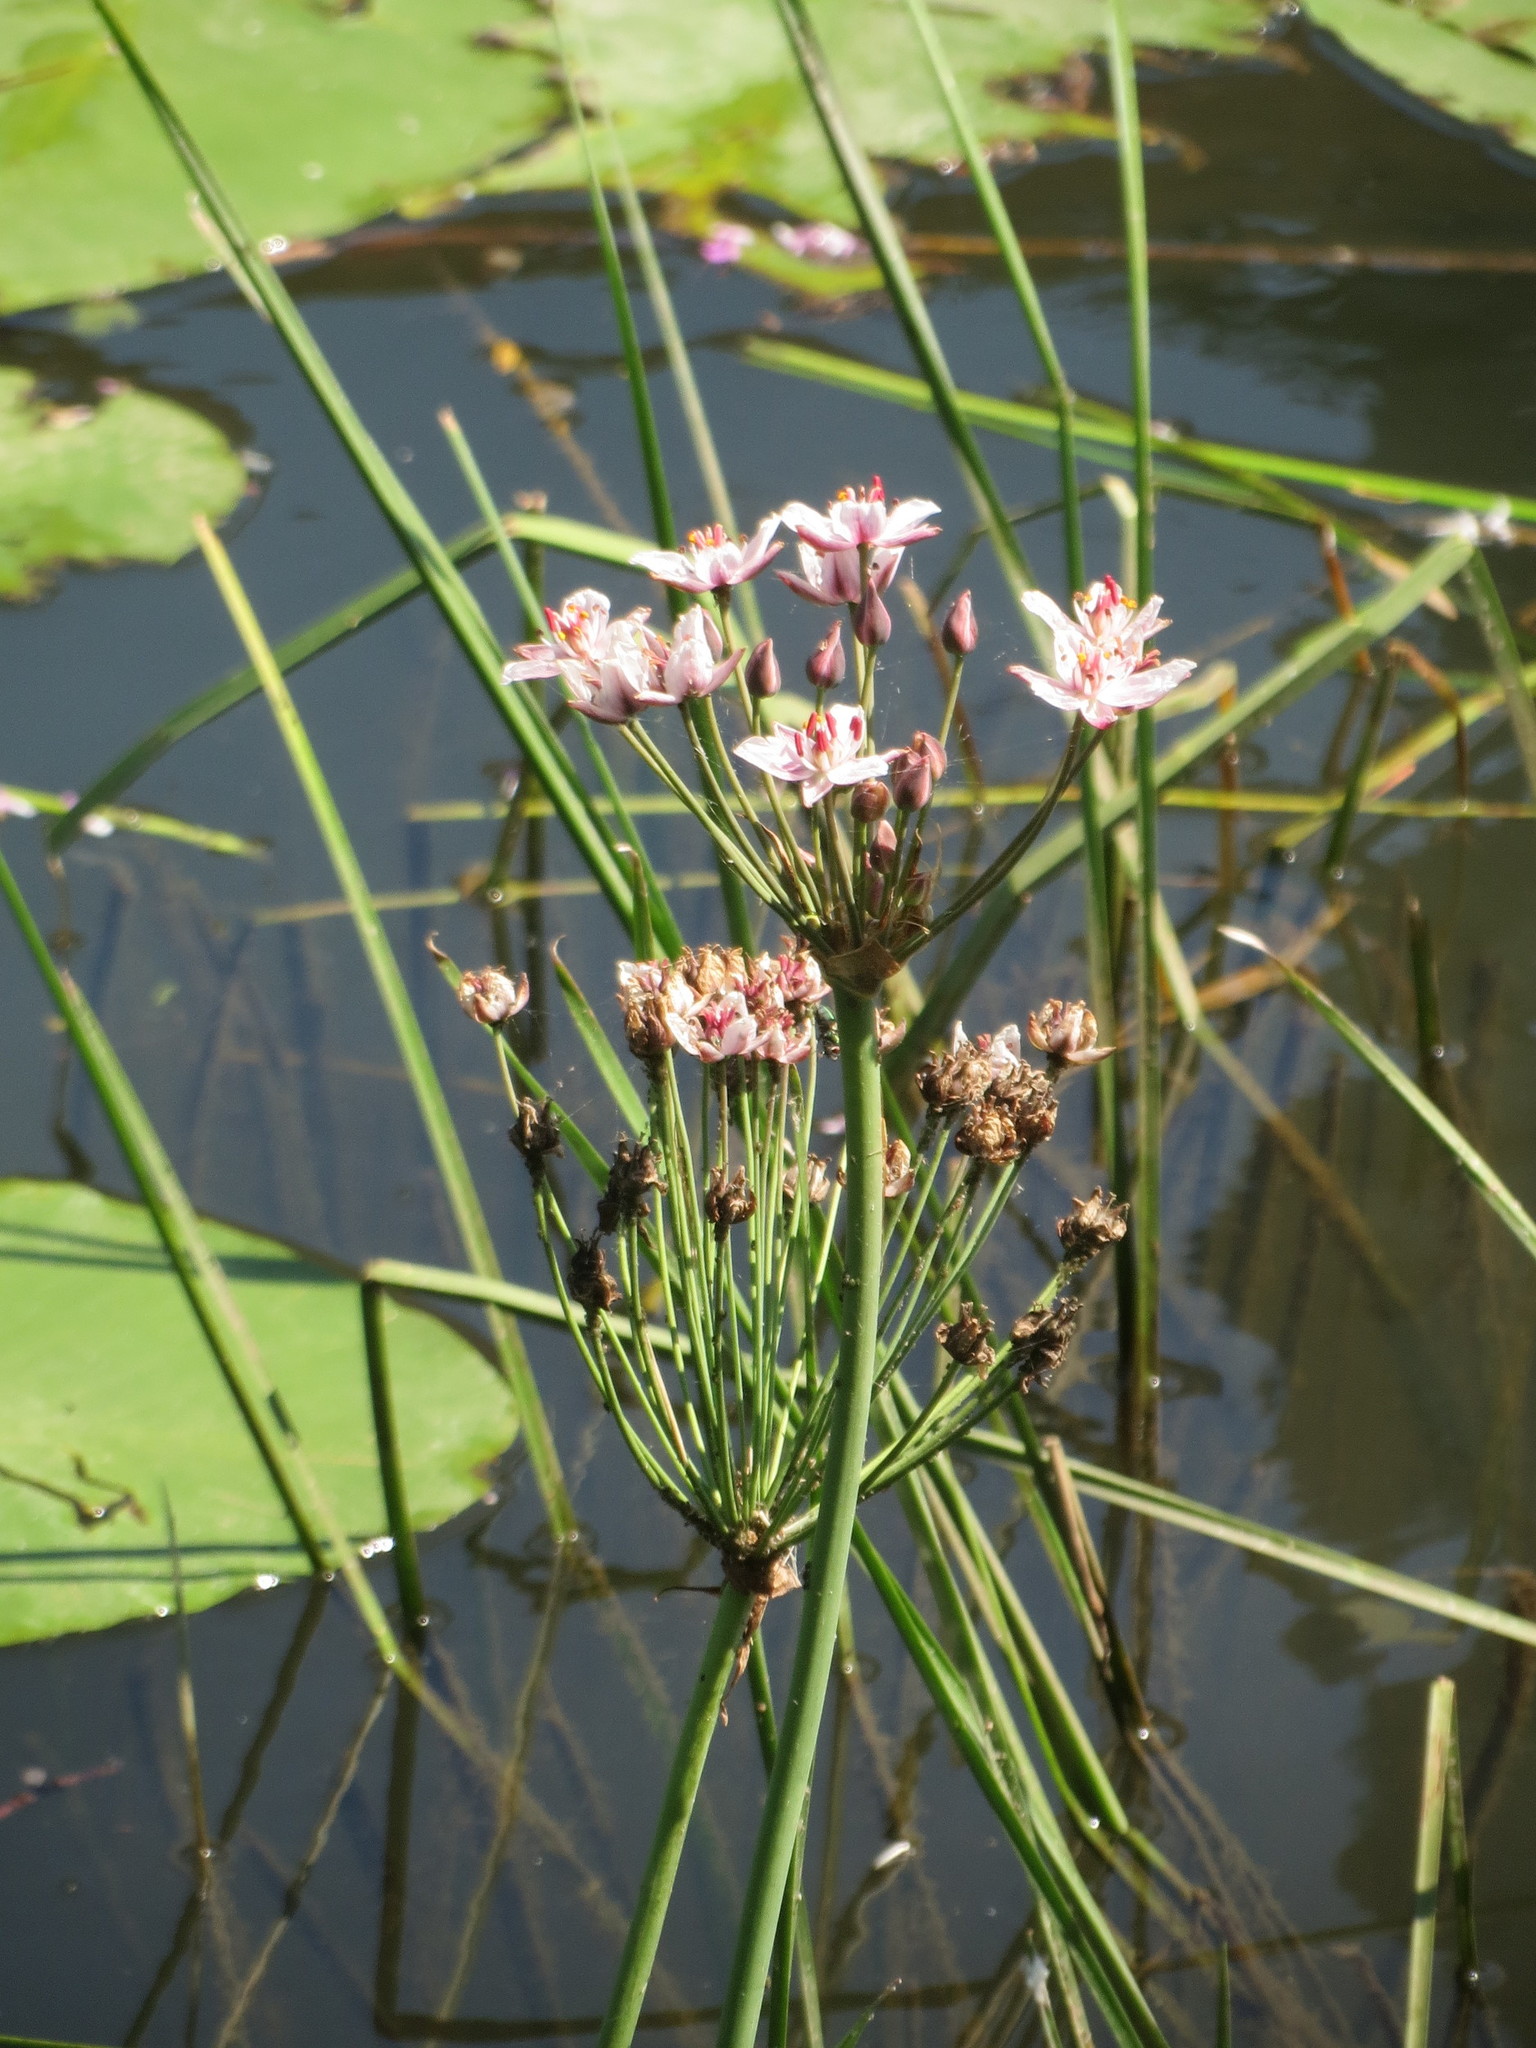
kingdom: Plantae
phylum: Tracheophyta
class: Liliopsida
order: Alismatales
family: Butomaceae
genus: Butomus
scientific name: Butomus umbellatus
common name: Flowering-rush
